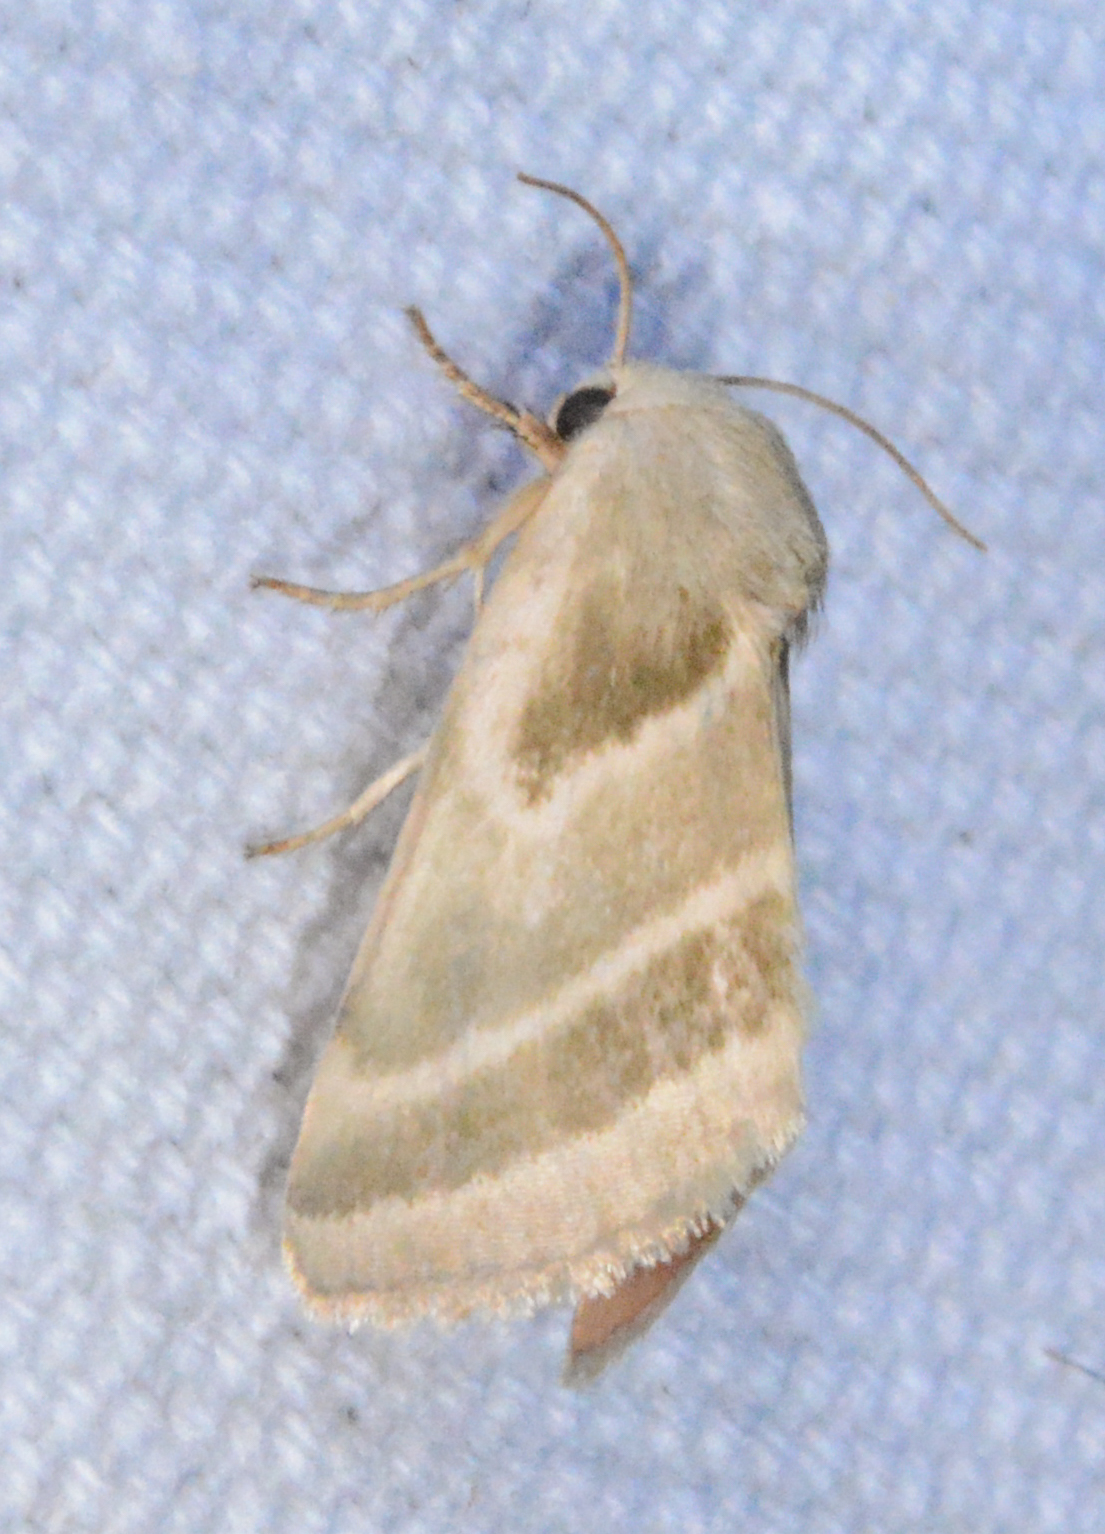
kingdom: Animalia
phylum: Arthropoda
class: Insecta
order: Lepidoptera
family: Noctuidae
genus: Schinia
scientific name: Schinia trifascia
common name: Three-lined flower moth
